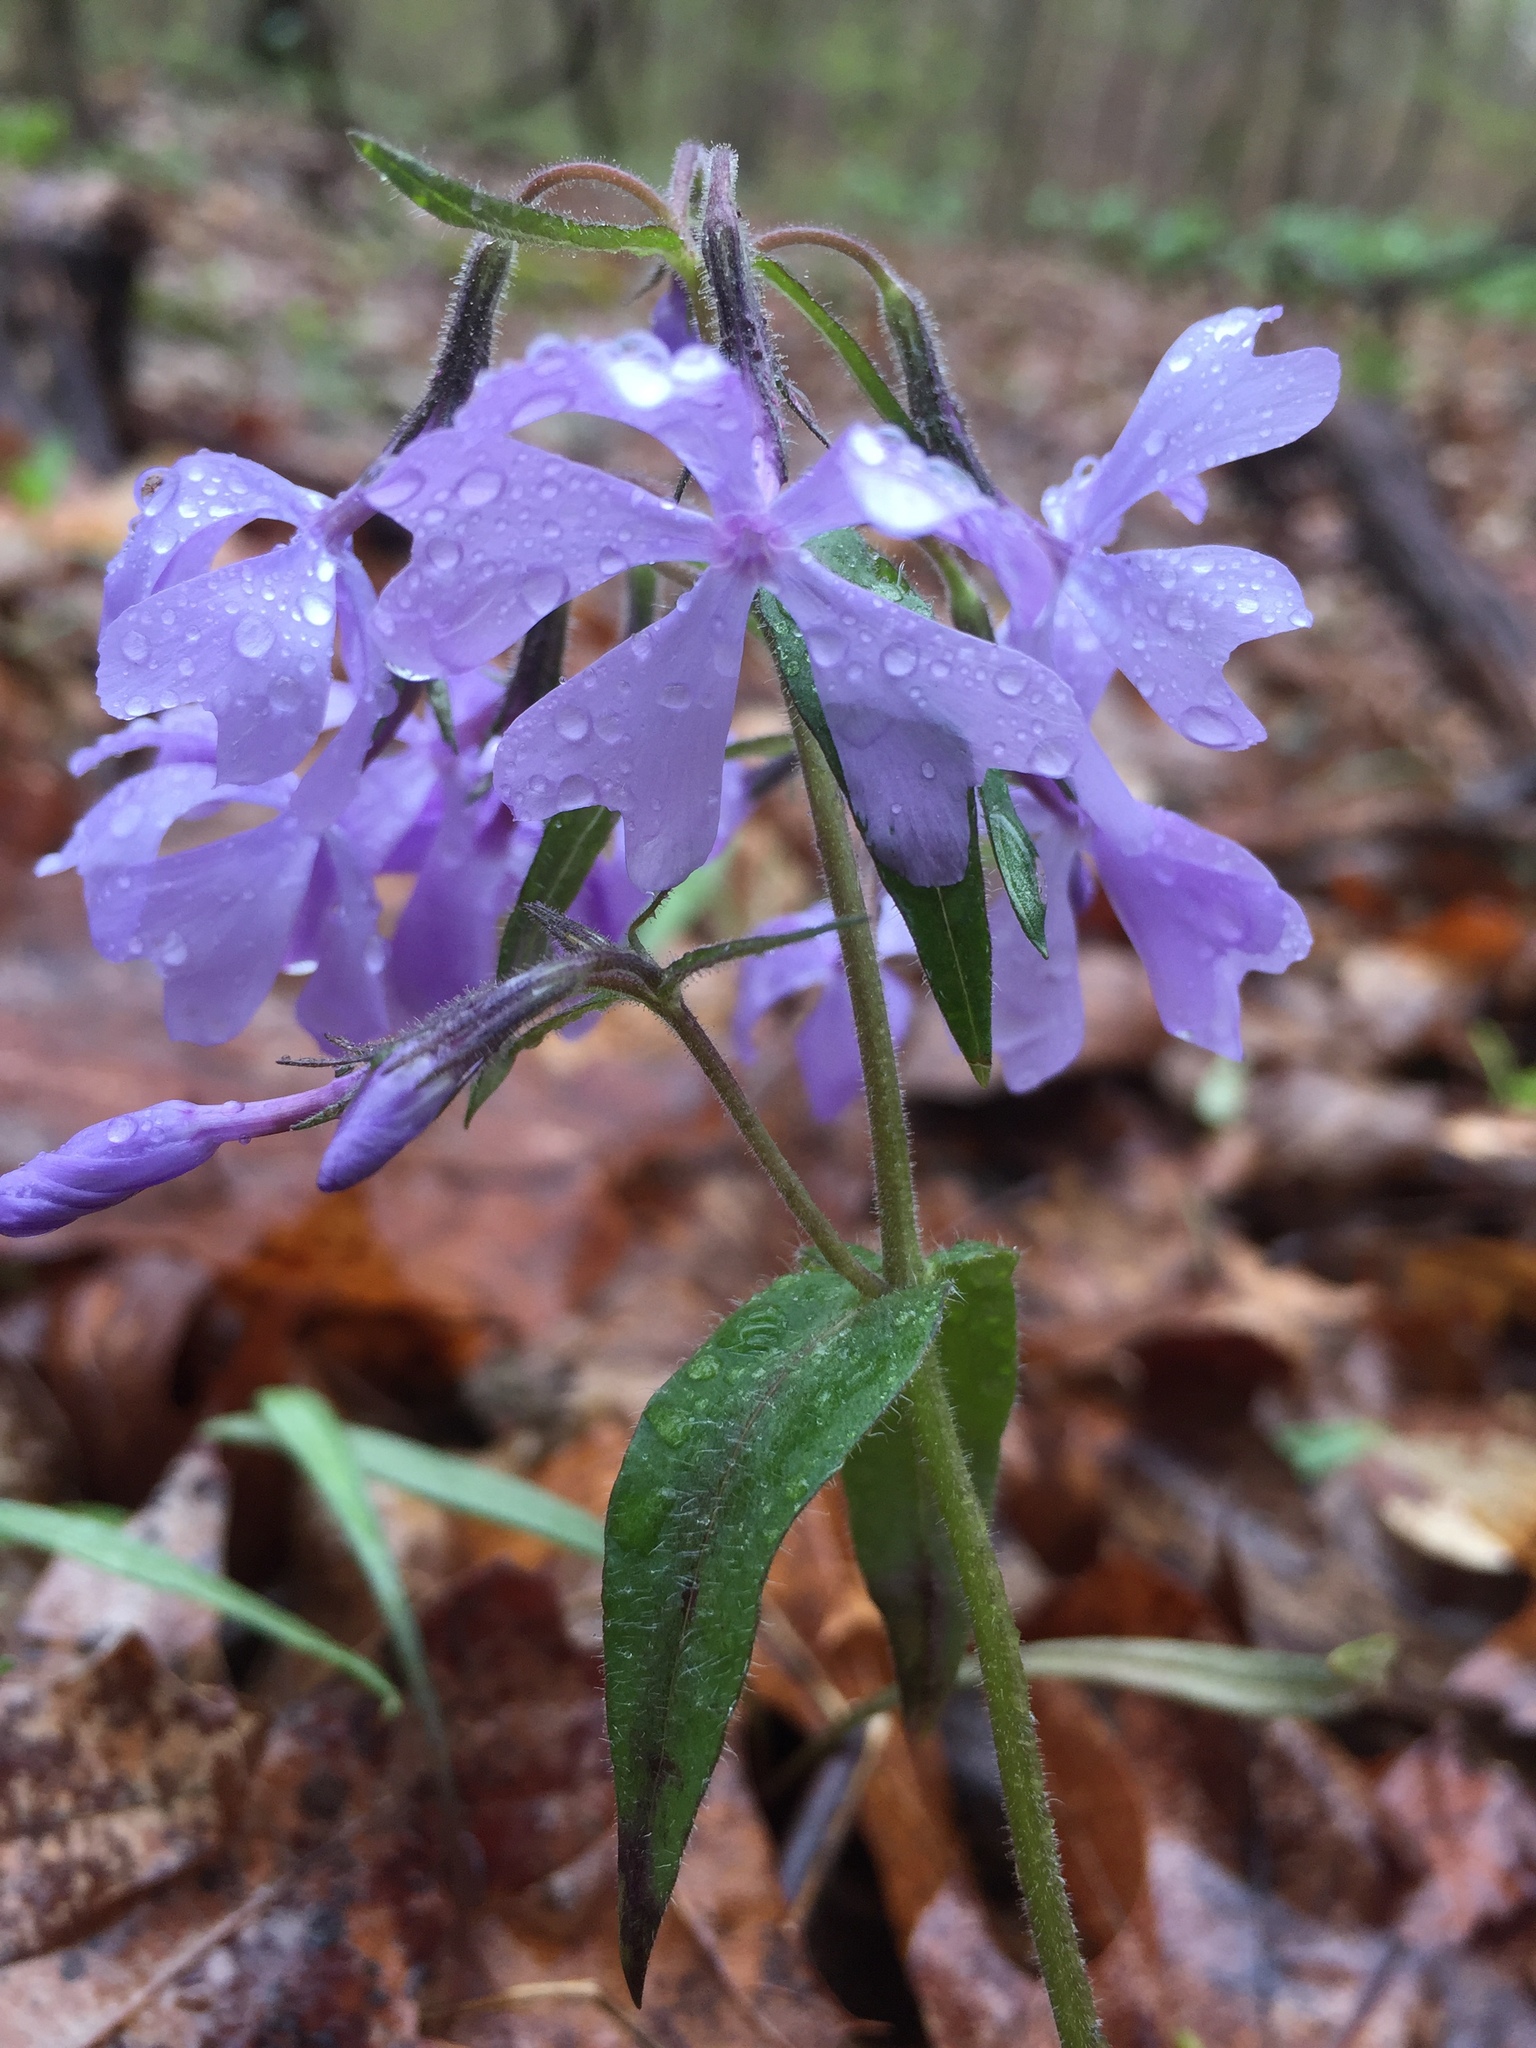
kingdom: Plantae
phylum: Tracheophyta
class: Magnoliopsida
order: Ericales
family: Polemoniaceae
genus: Phlox
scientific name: Phlox divaricata
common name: Blue phlox
